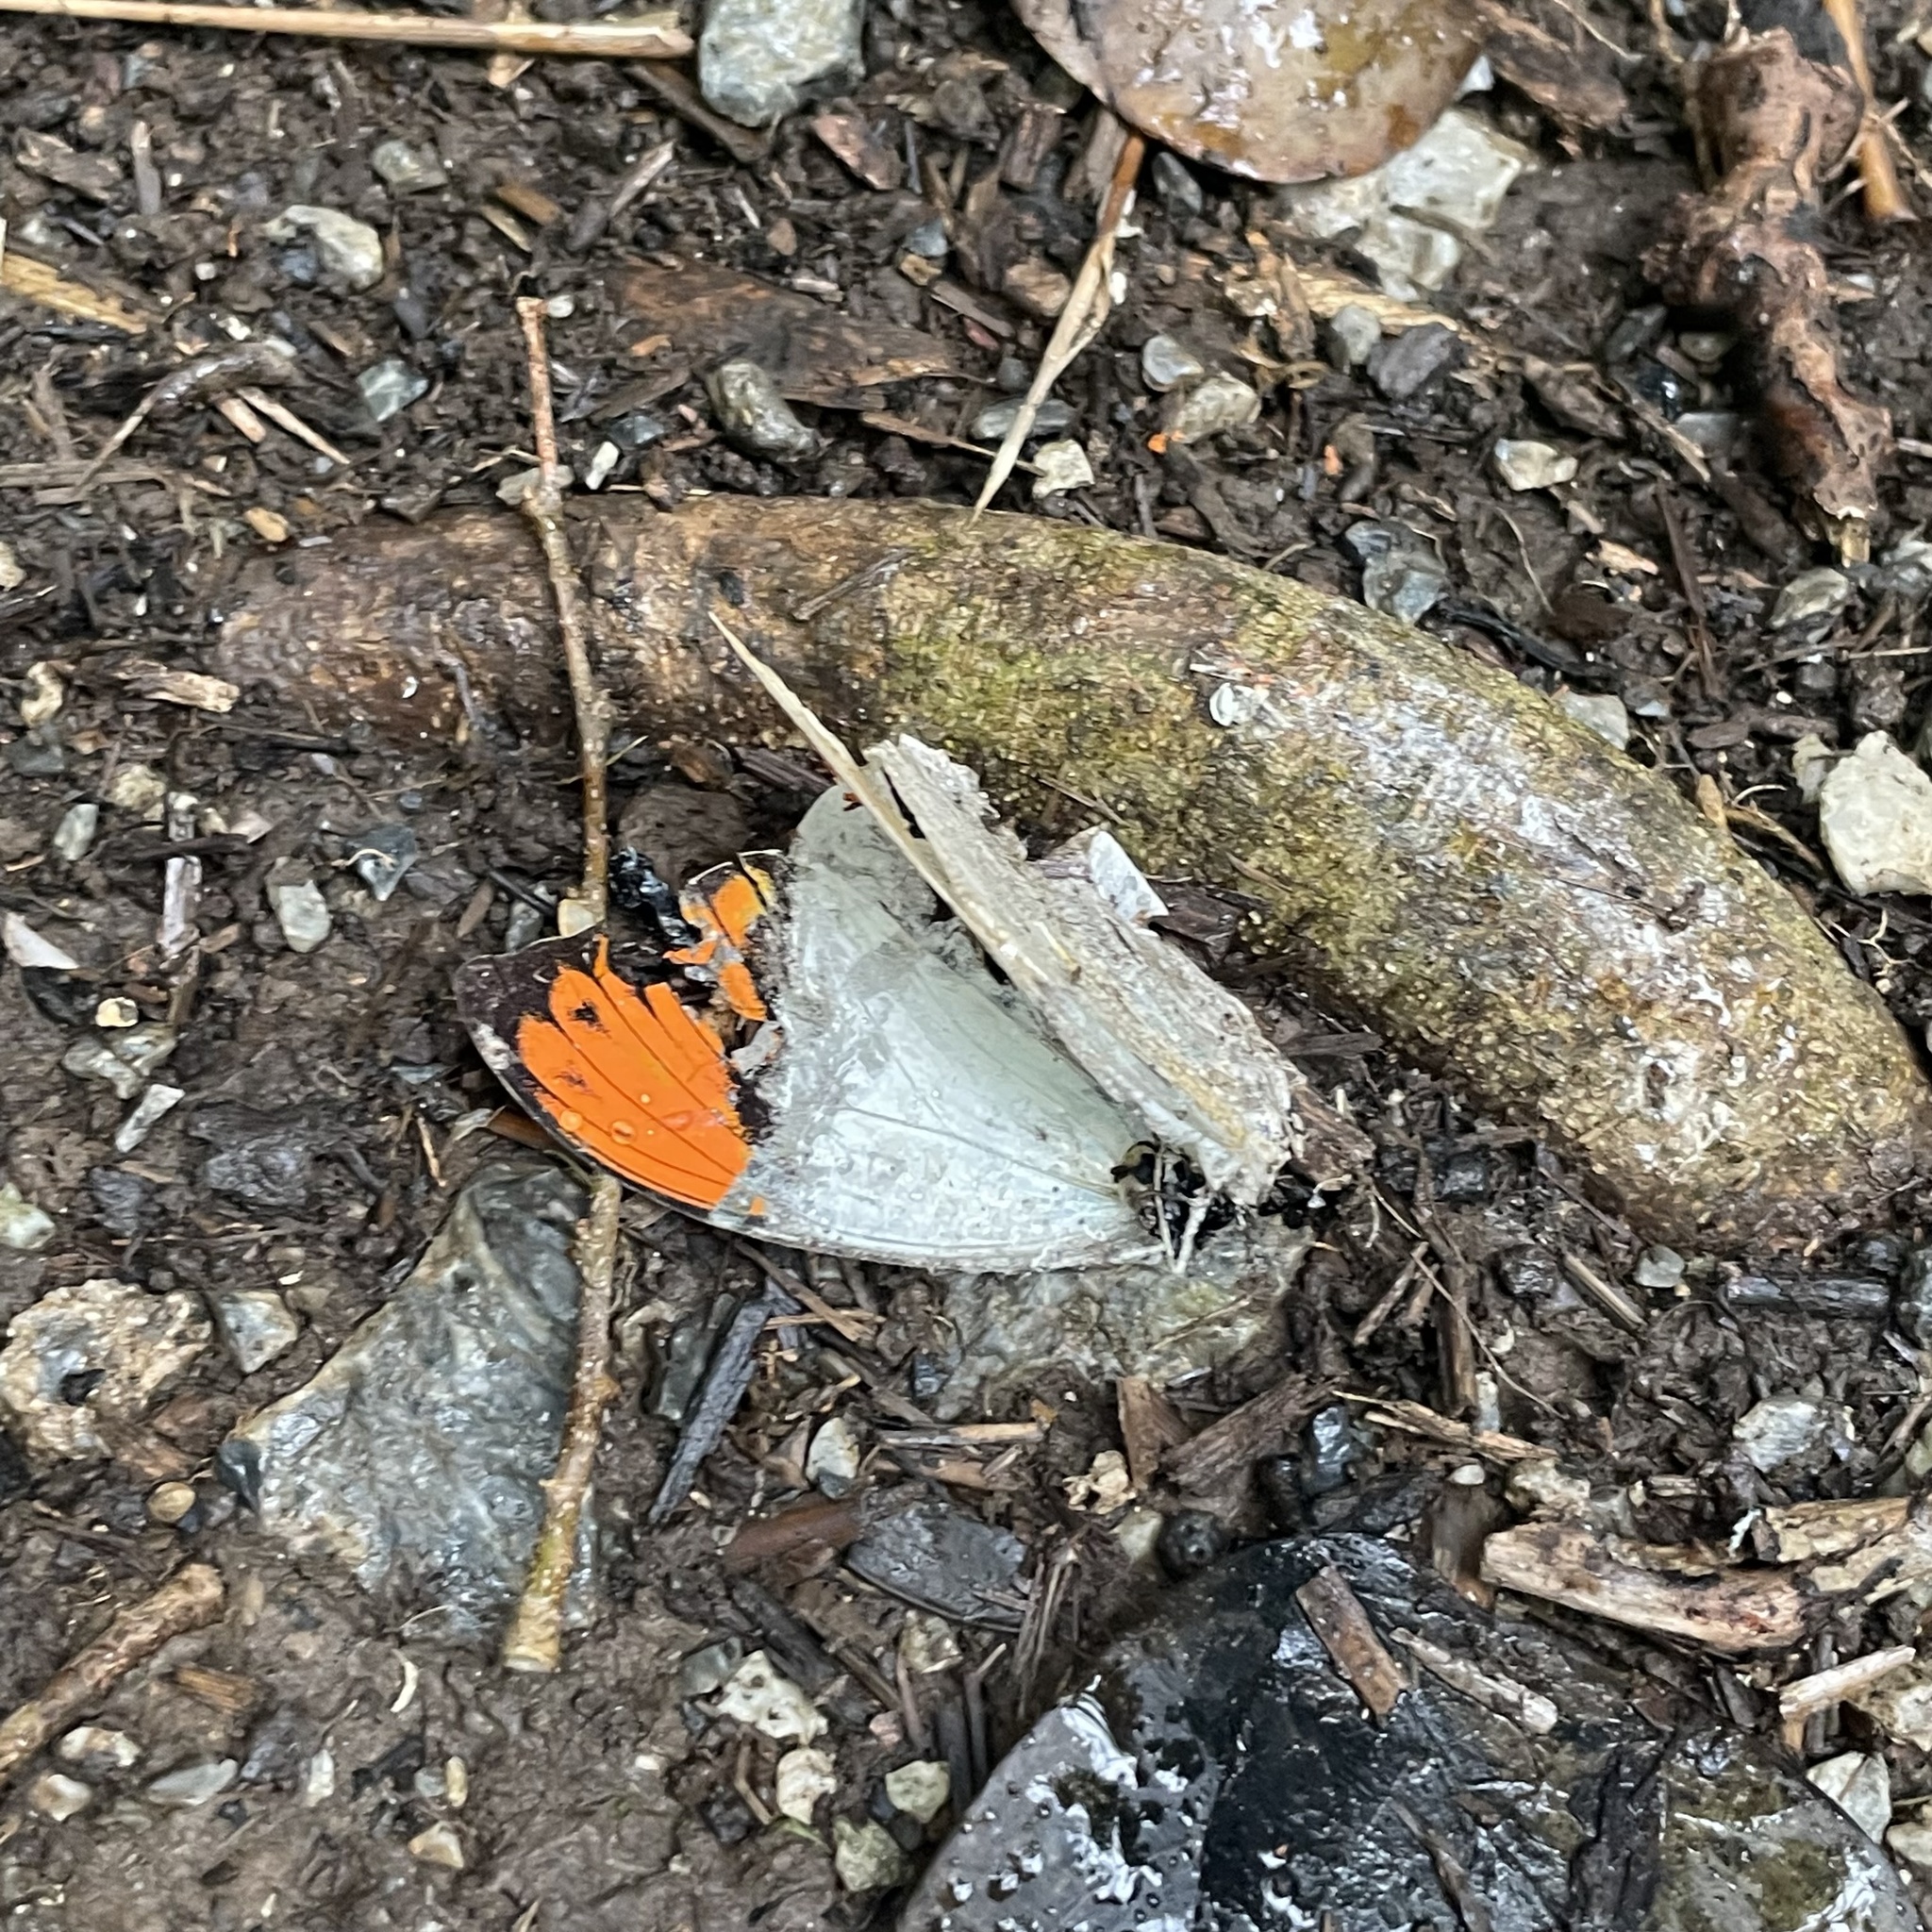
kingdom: Animalia
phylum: Arthropoda
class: Insecta
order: Lepidoptera
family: Pieridae
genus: Hebomoia
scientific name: Hebomoia glaucippe
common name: Great orange tip
